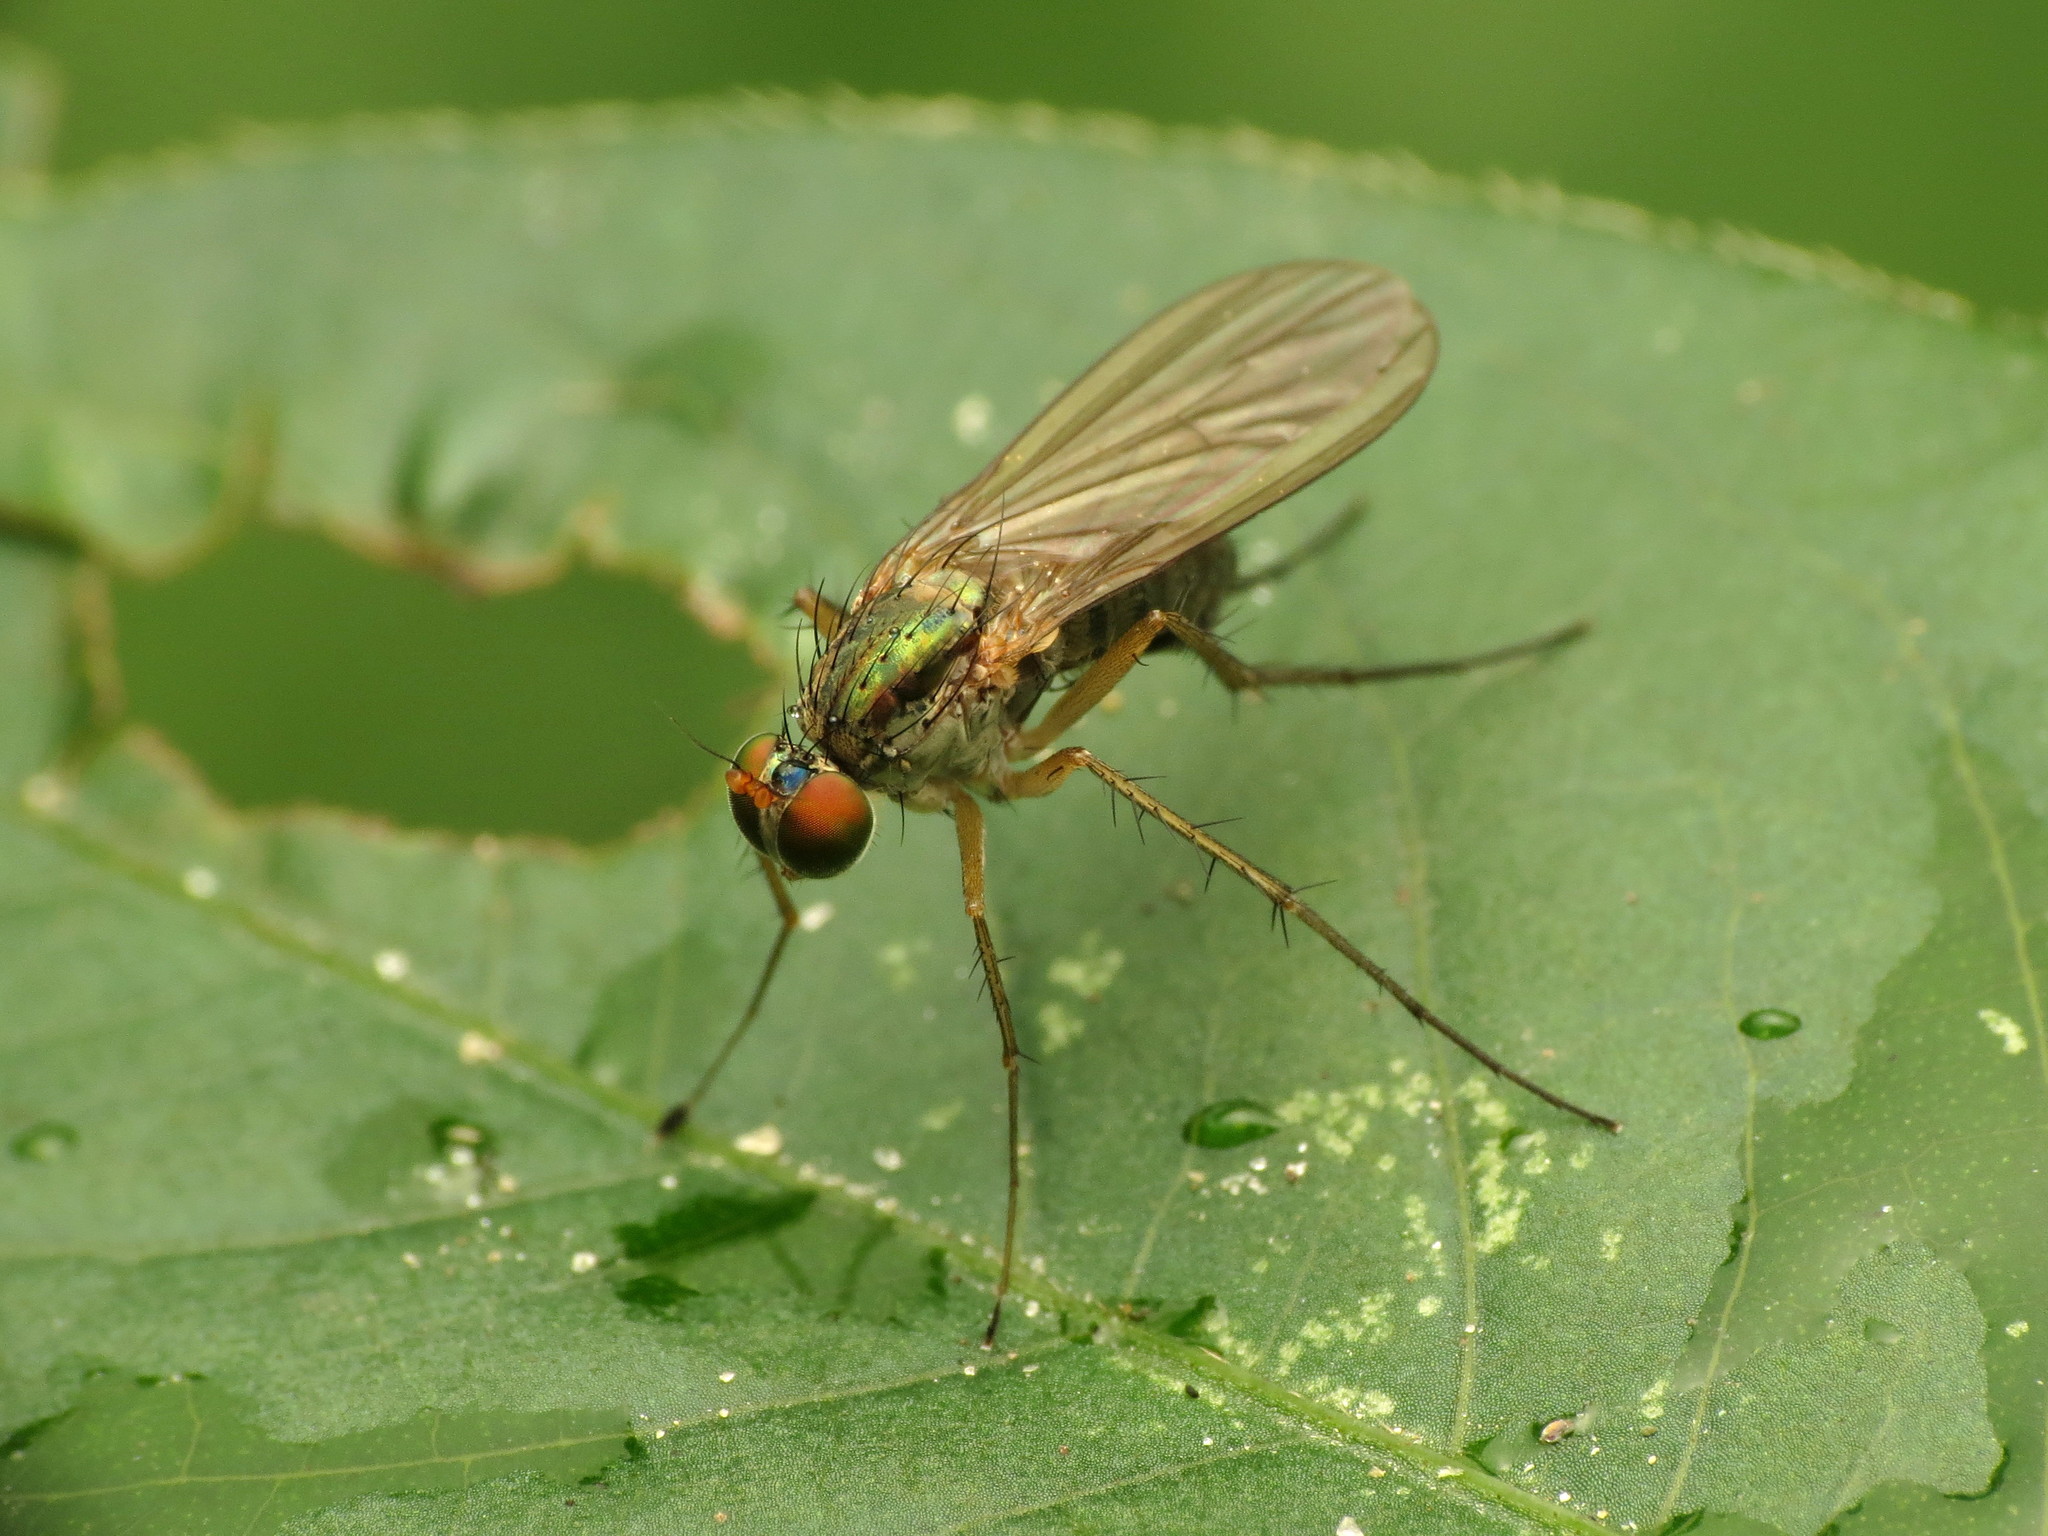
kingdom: Animalia
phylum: Arthropoda
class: Insecta
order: Diptera
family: Dolichopodidae
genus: Dolichopus
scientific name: Dolichopus longipennis
